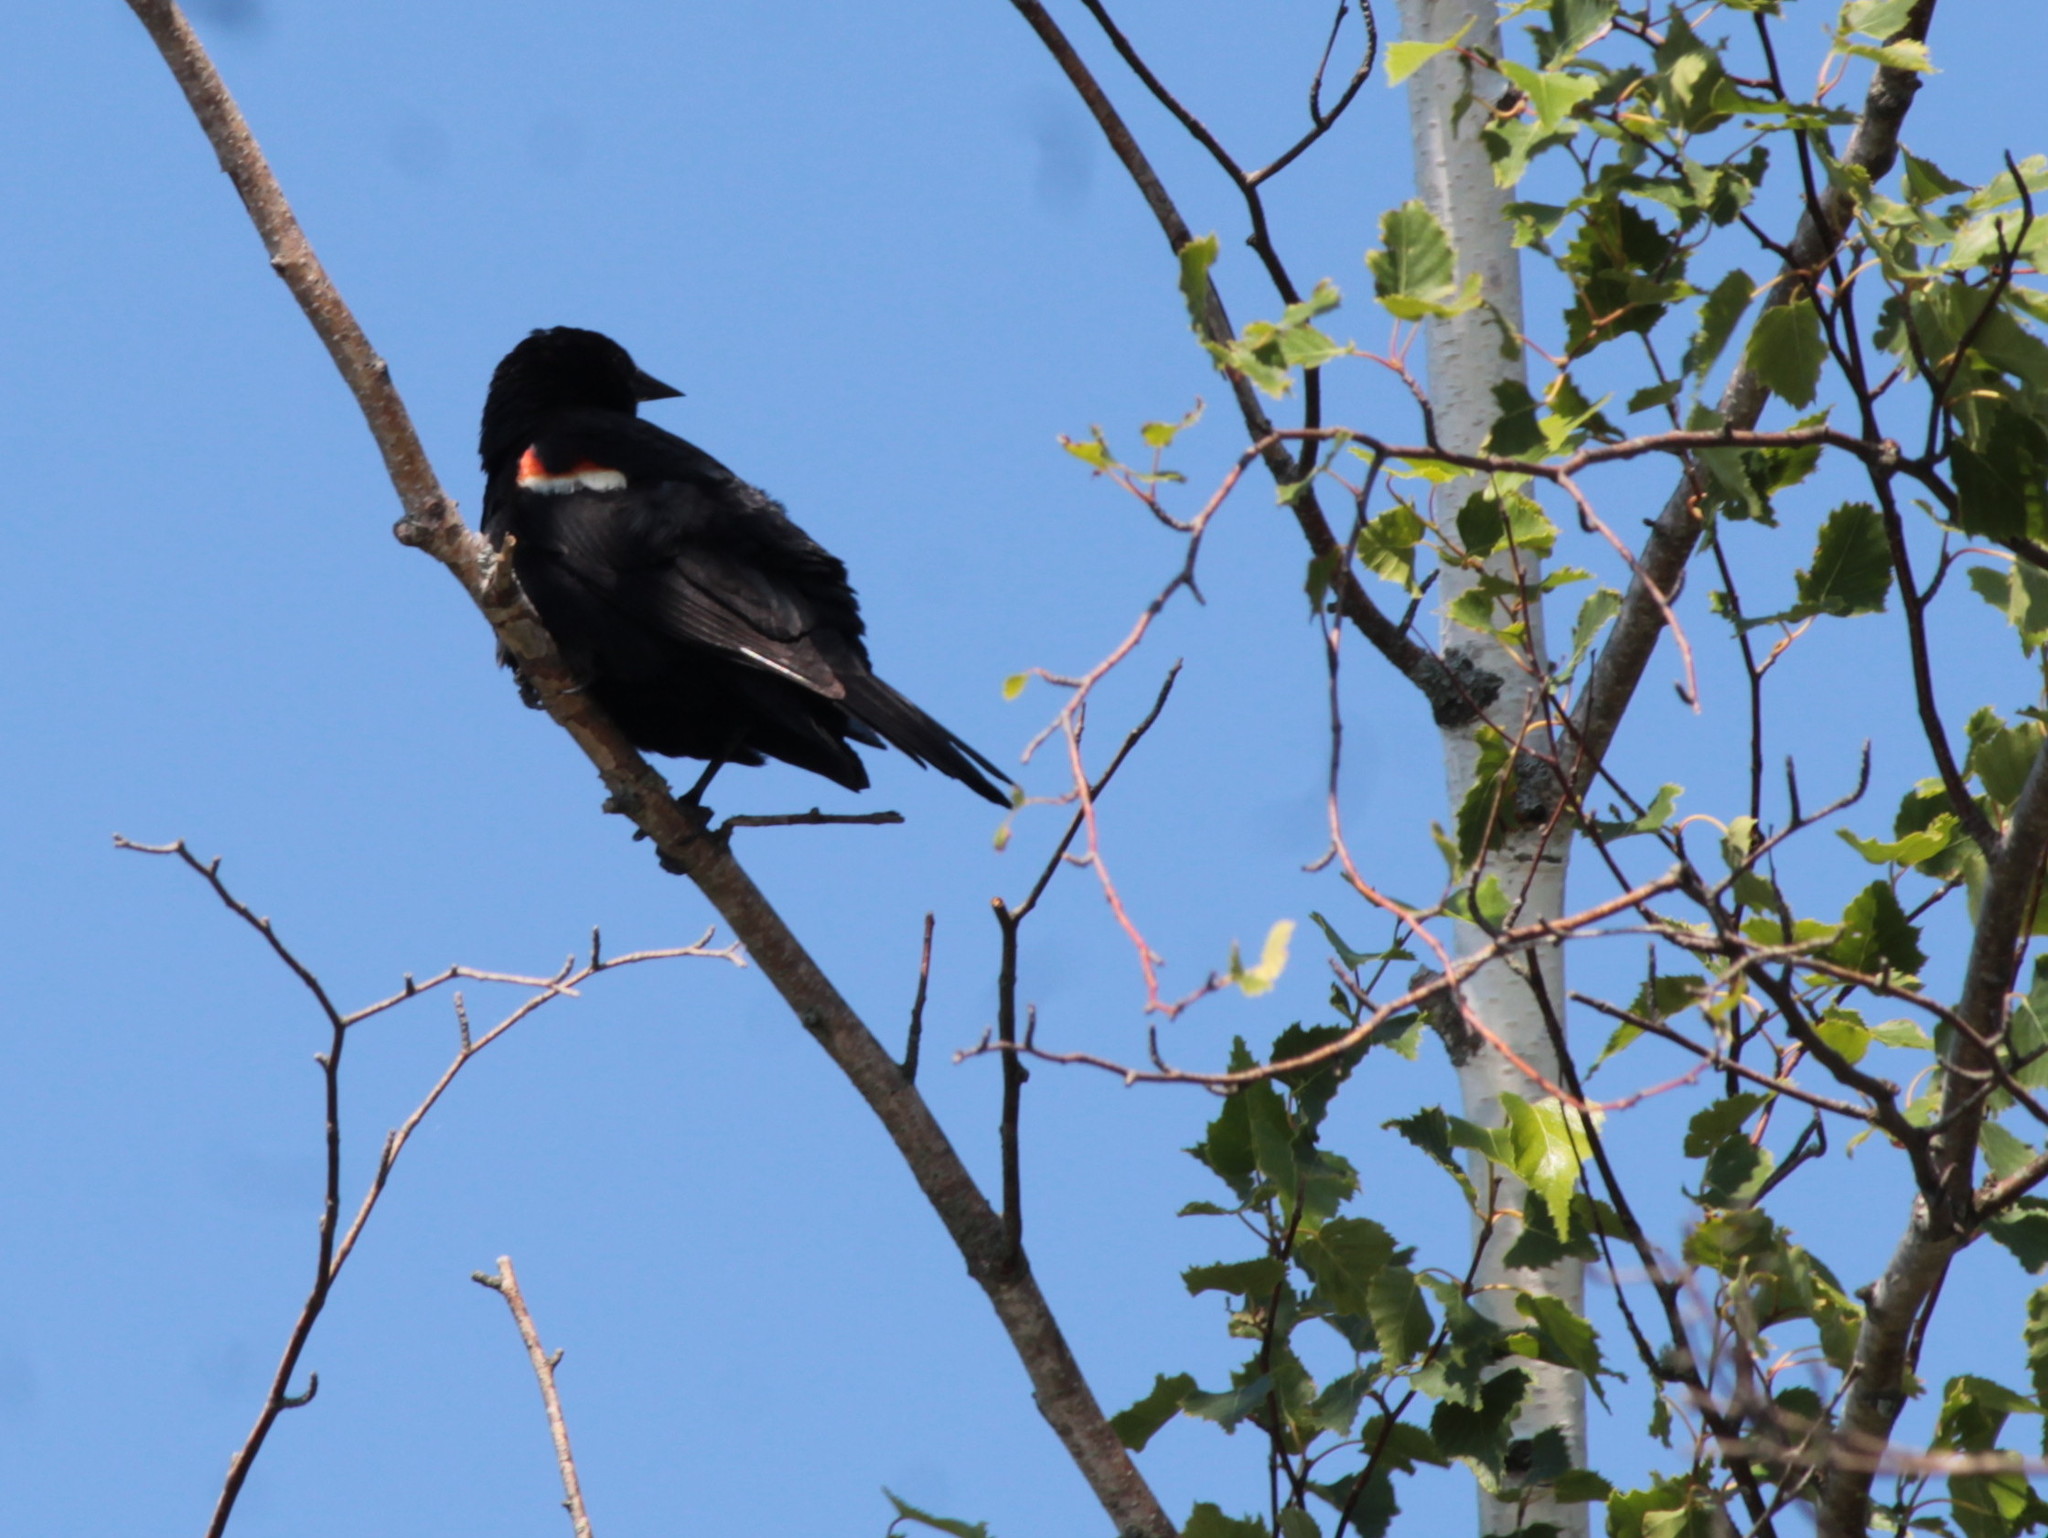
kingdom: Animalia
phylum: Chordata
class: Aves
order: Passeriformes
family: Icteridae
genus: Agelaius
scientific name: Agelaius phoeniceus
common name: Red-winged blackbird
